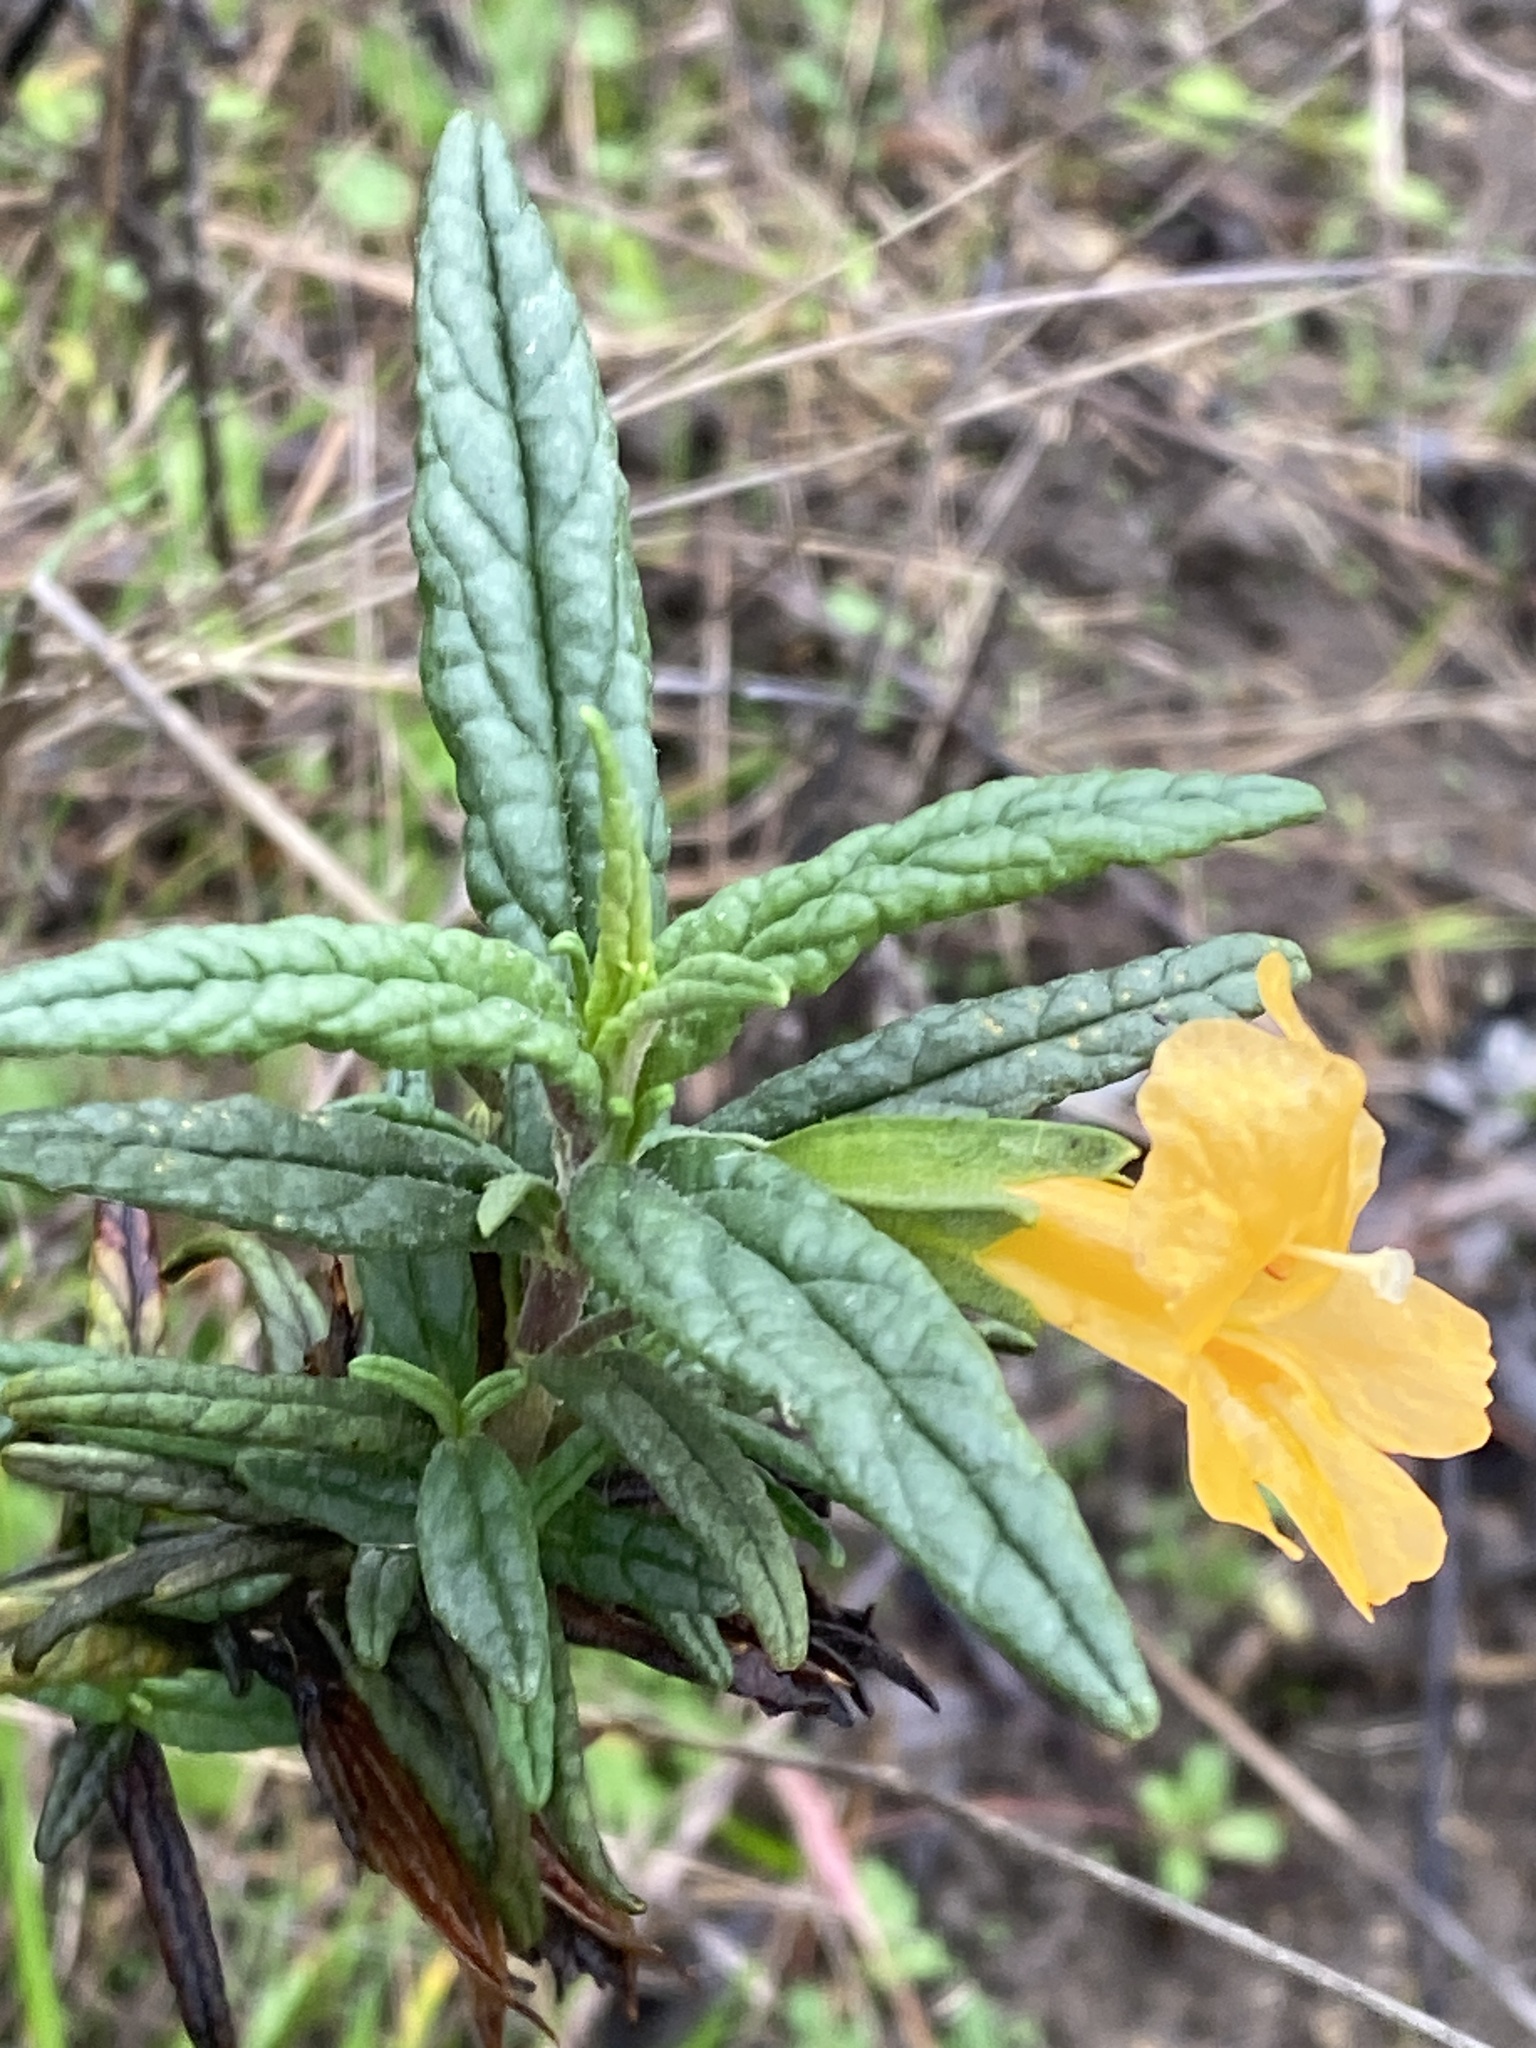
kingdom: Plantae
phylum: Tracheophyta
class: Magnoliopsida
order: Lamiales
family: Phrymaceae
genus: Diplacus
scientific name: Diplacus aurantiacus
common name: Bush monkey-flower
